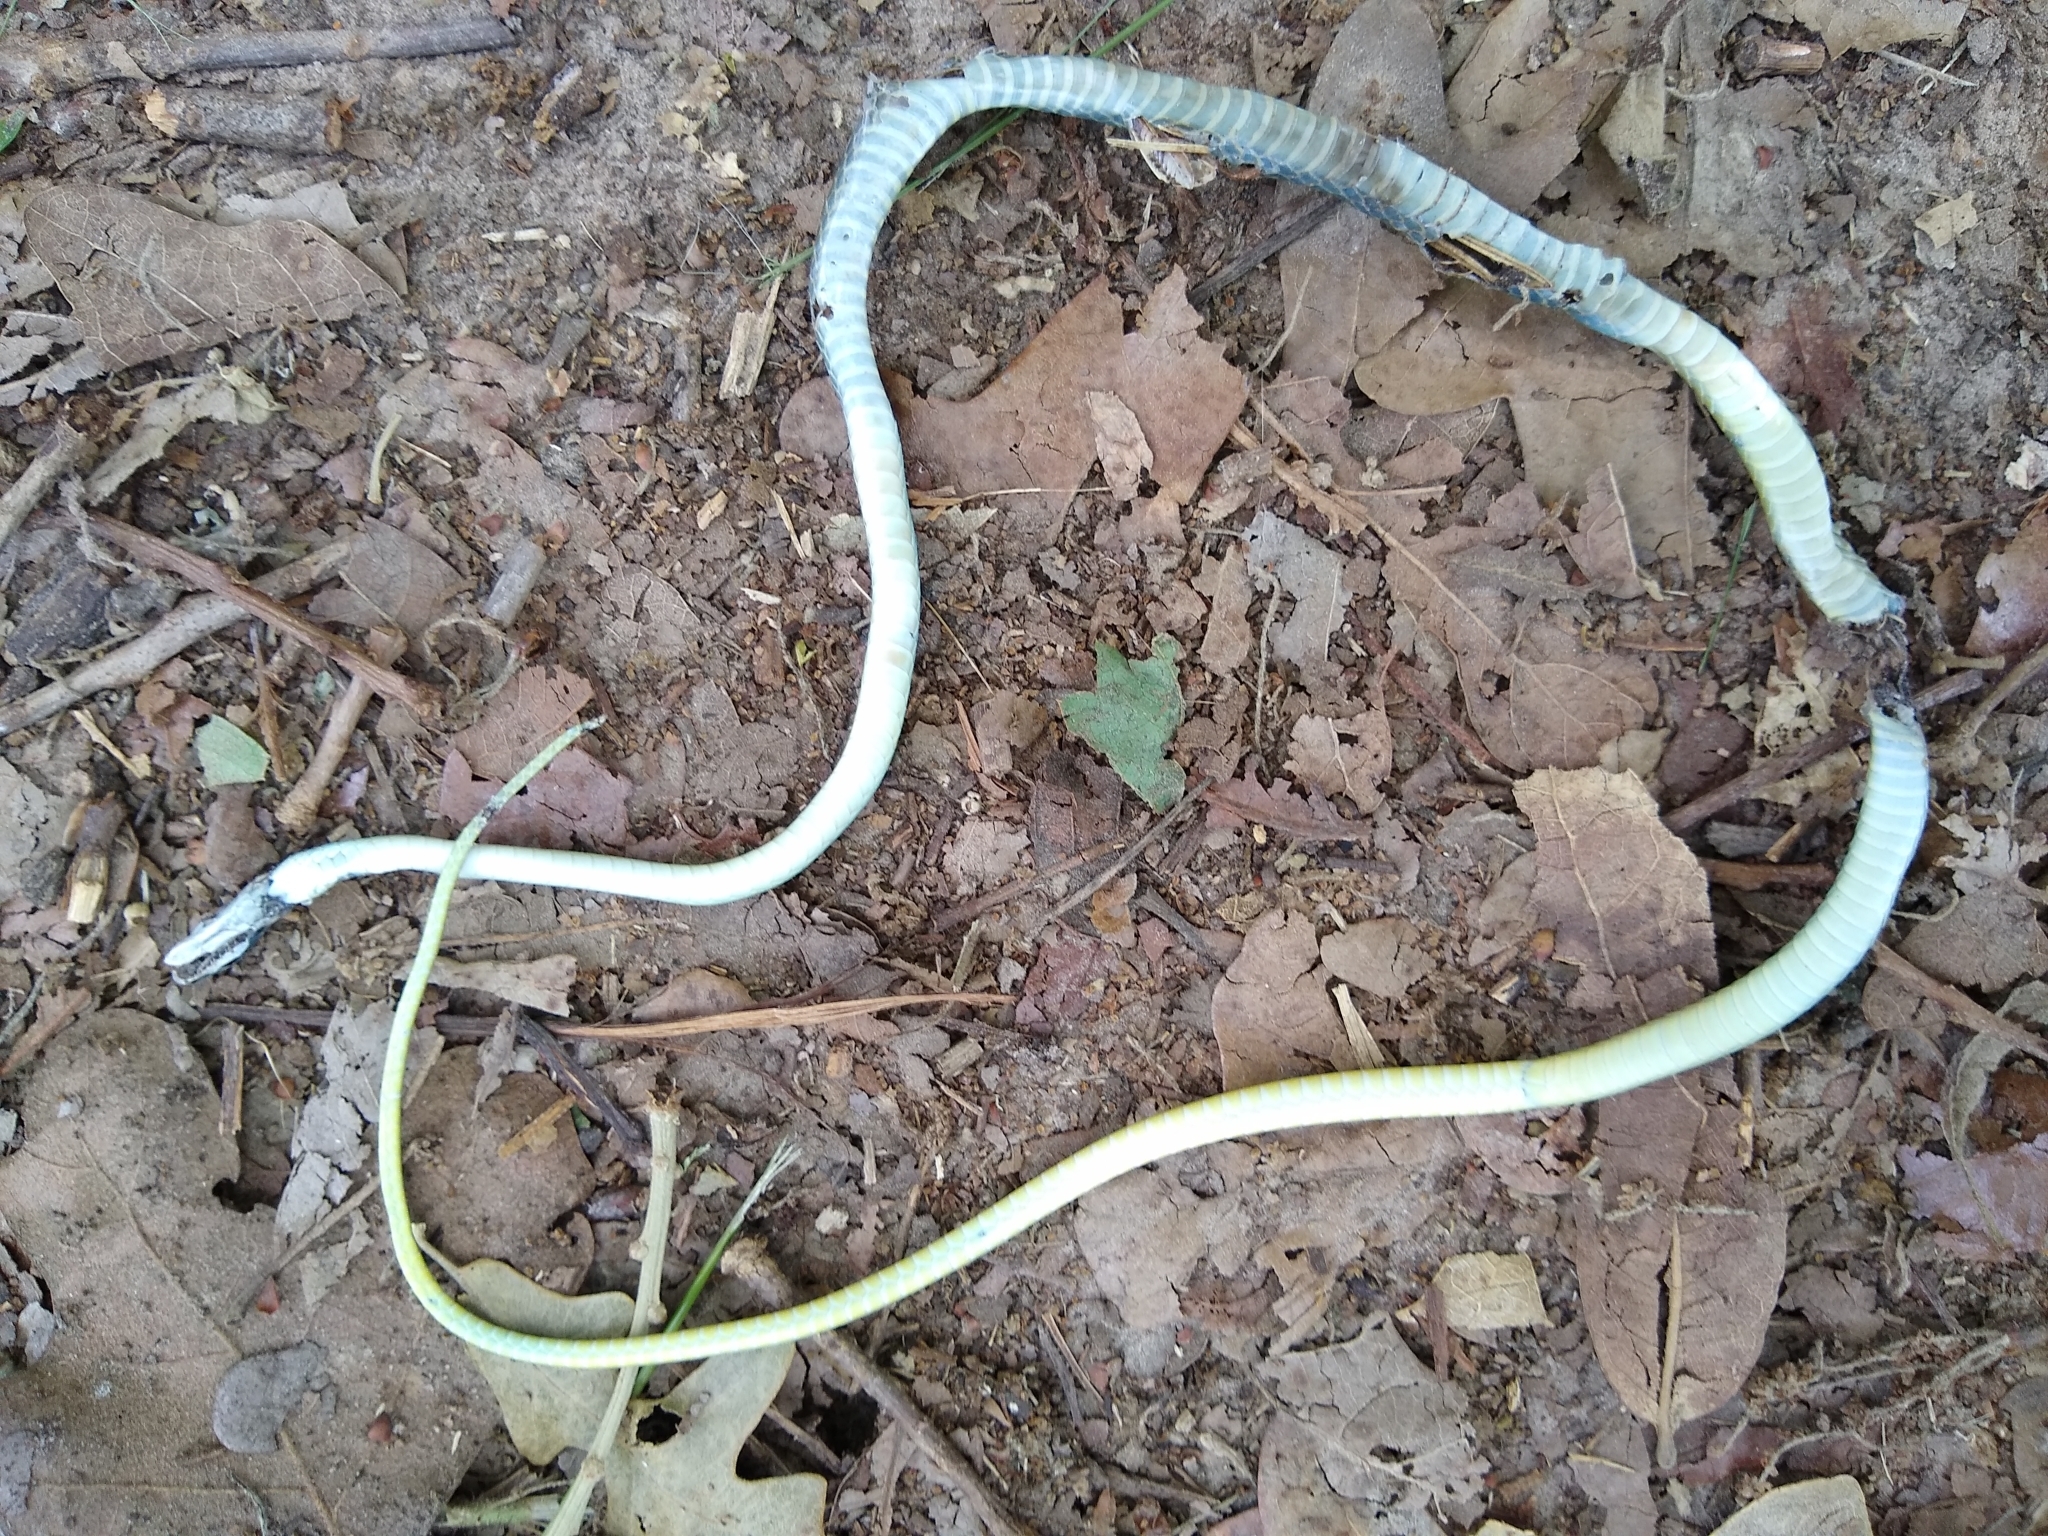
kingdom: Animalia
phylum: Chordata
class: Squamata
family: Colubridae
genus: Opheodrys
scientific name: Opheodrys aestivus
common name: Rough greensnake
